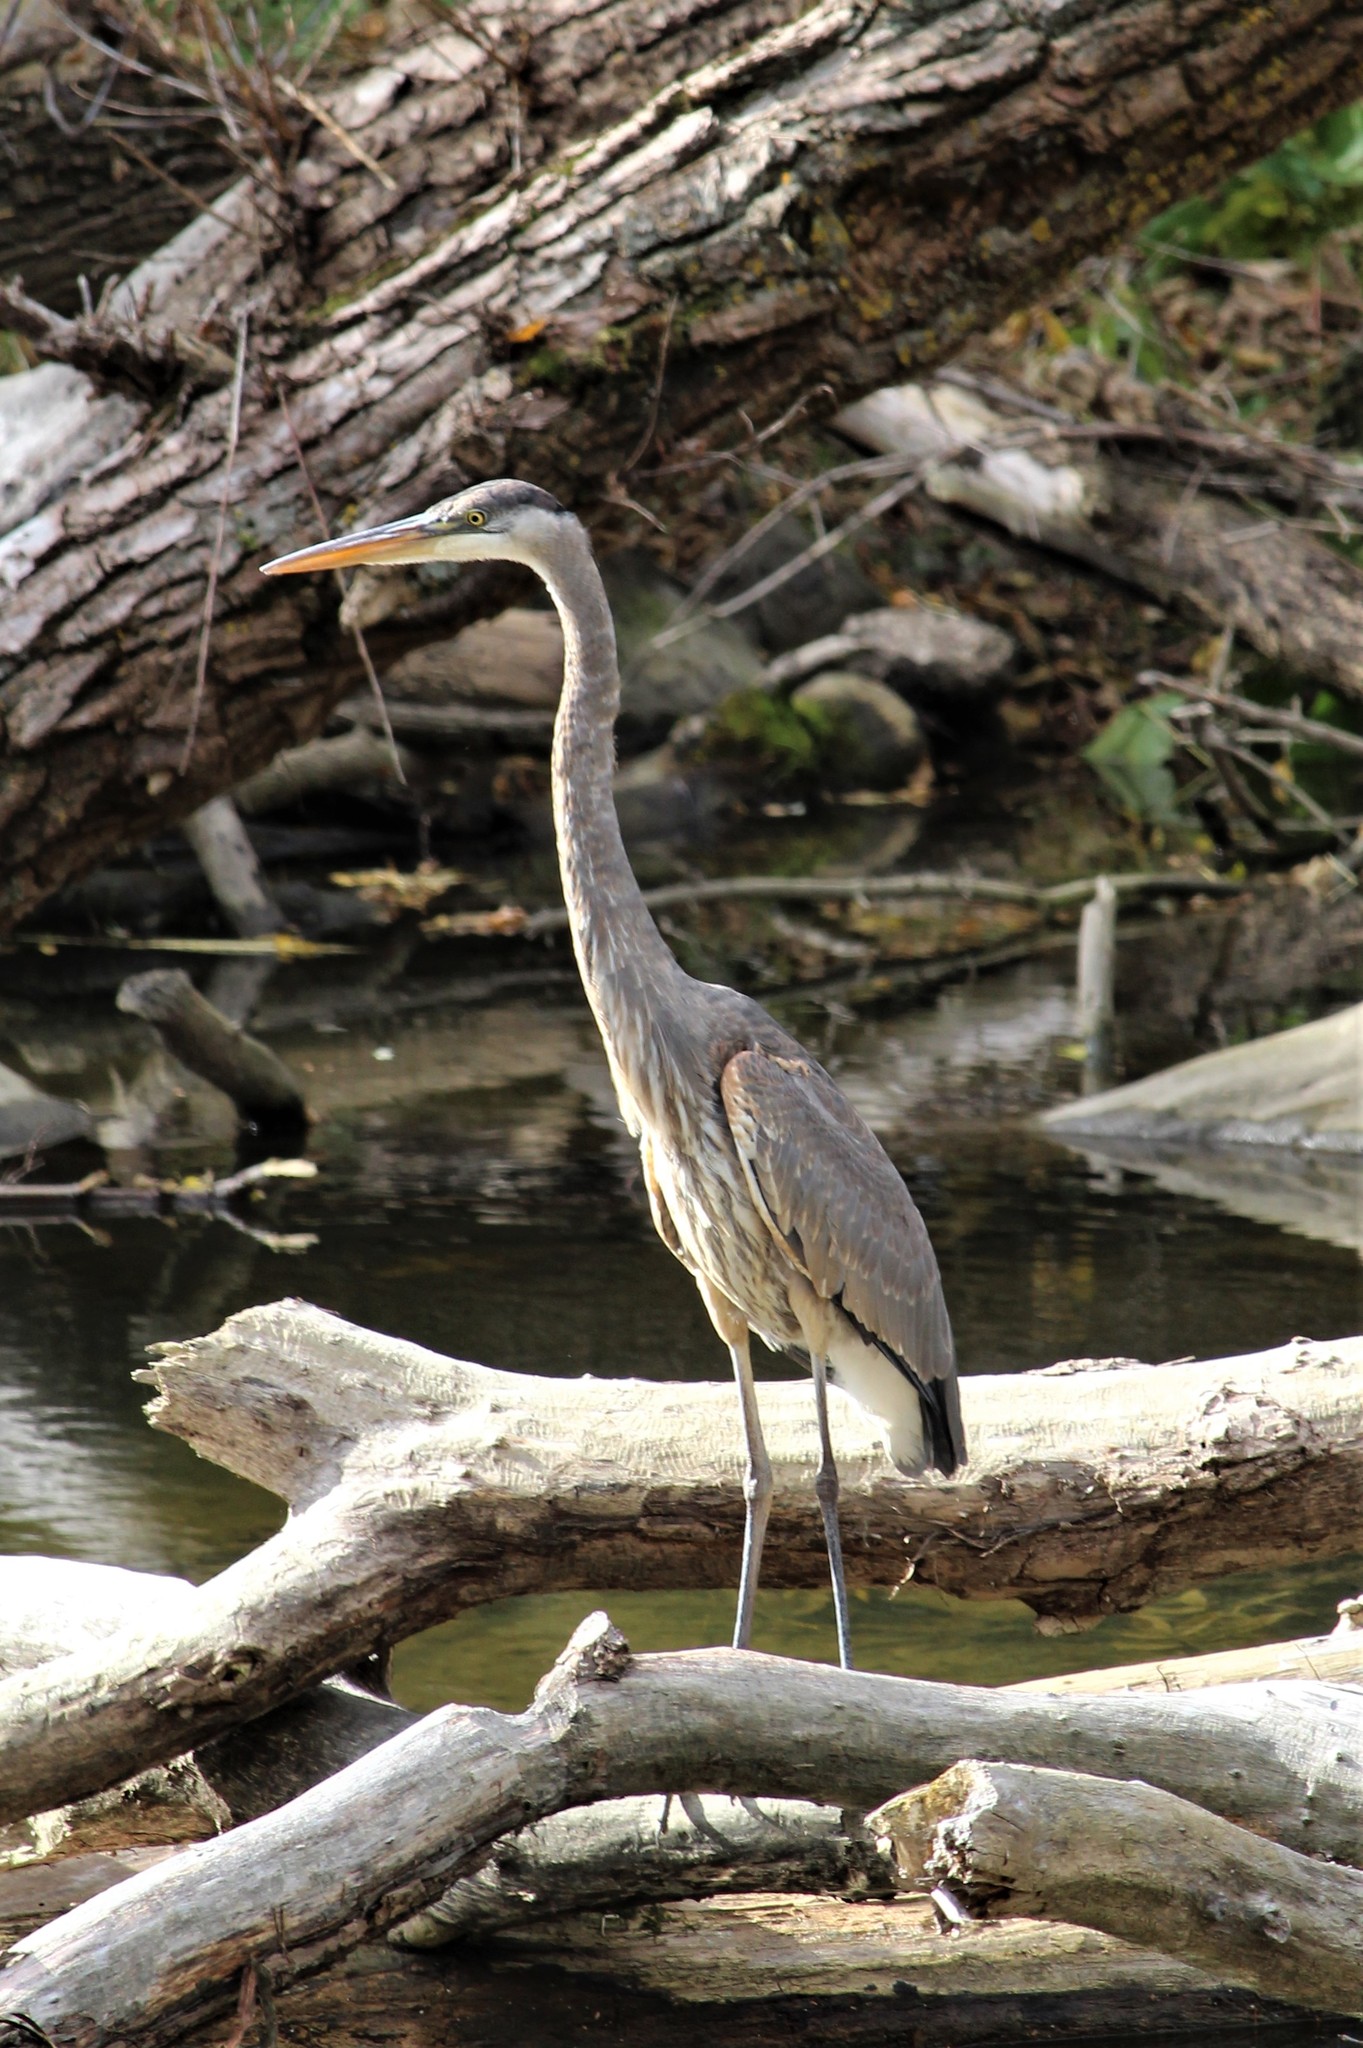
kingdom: Animalia
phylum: Chordata
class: Aves
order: Pelecaniformes
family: Ardeidae
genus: Ardea
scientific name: Ardea herodias
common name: Great blue heron
